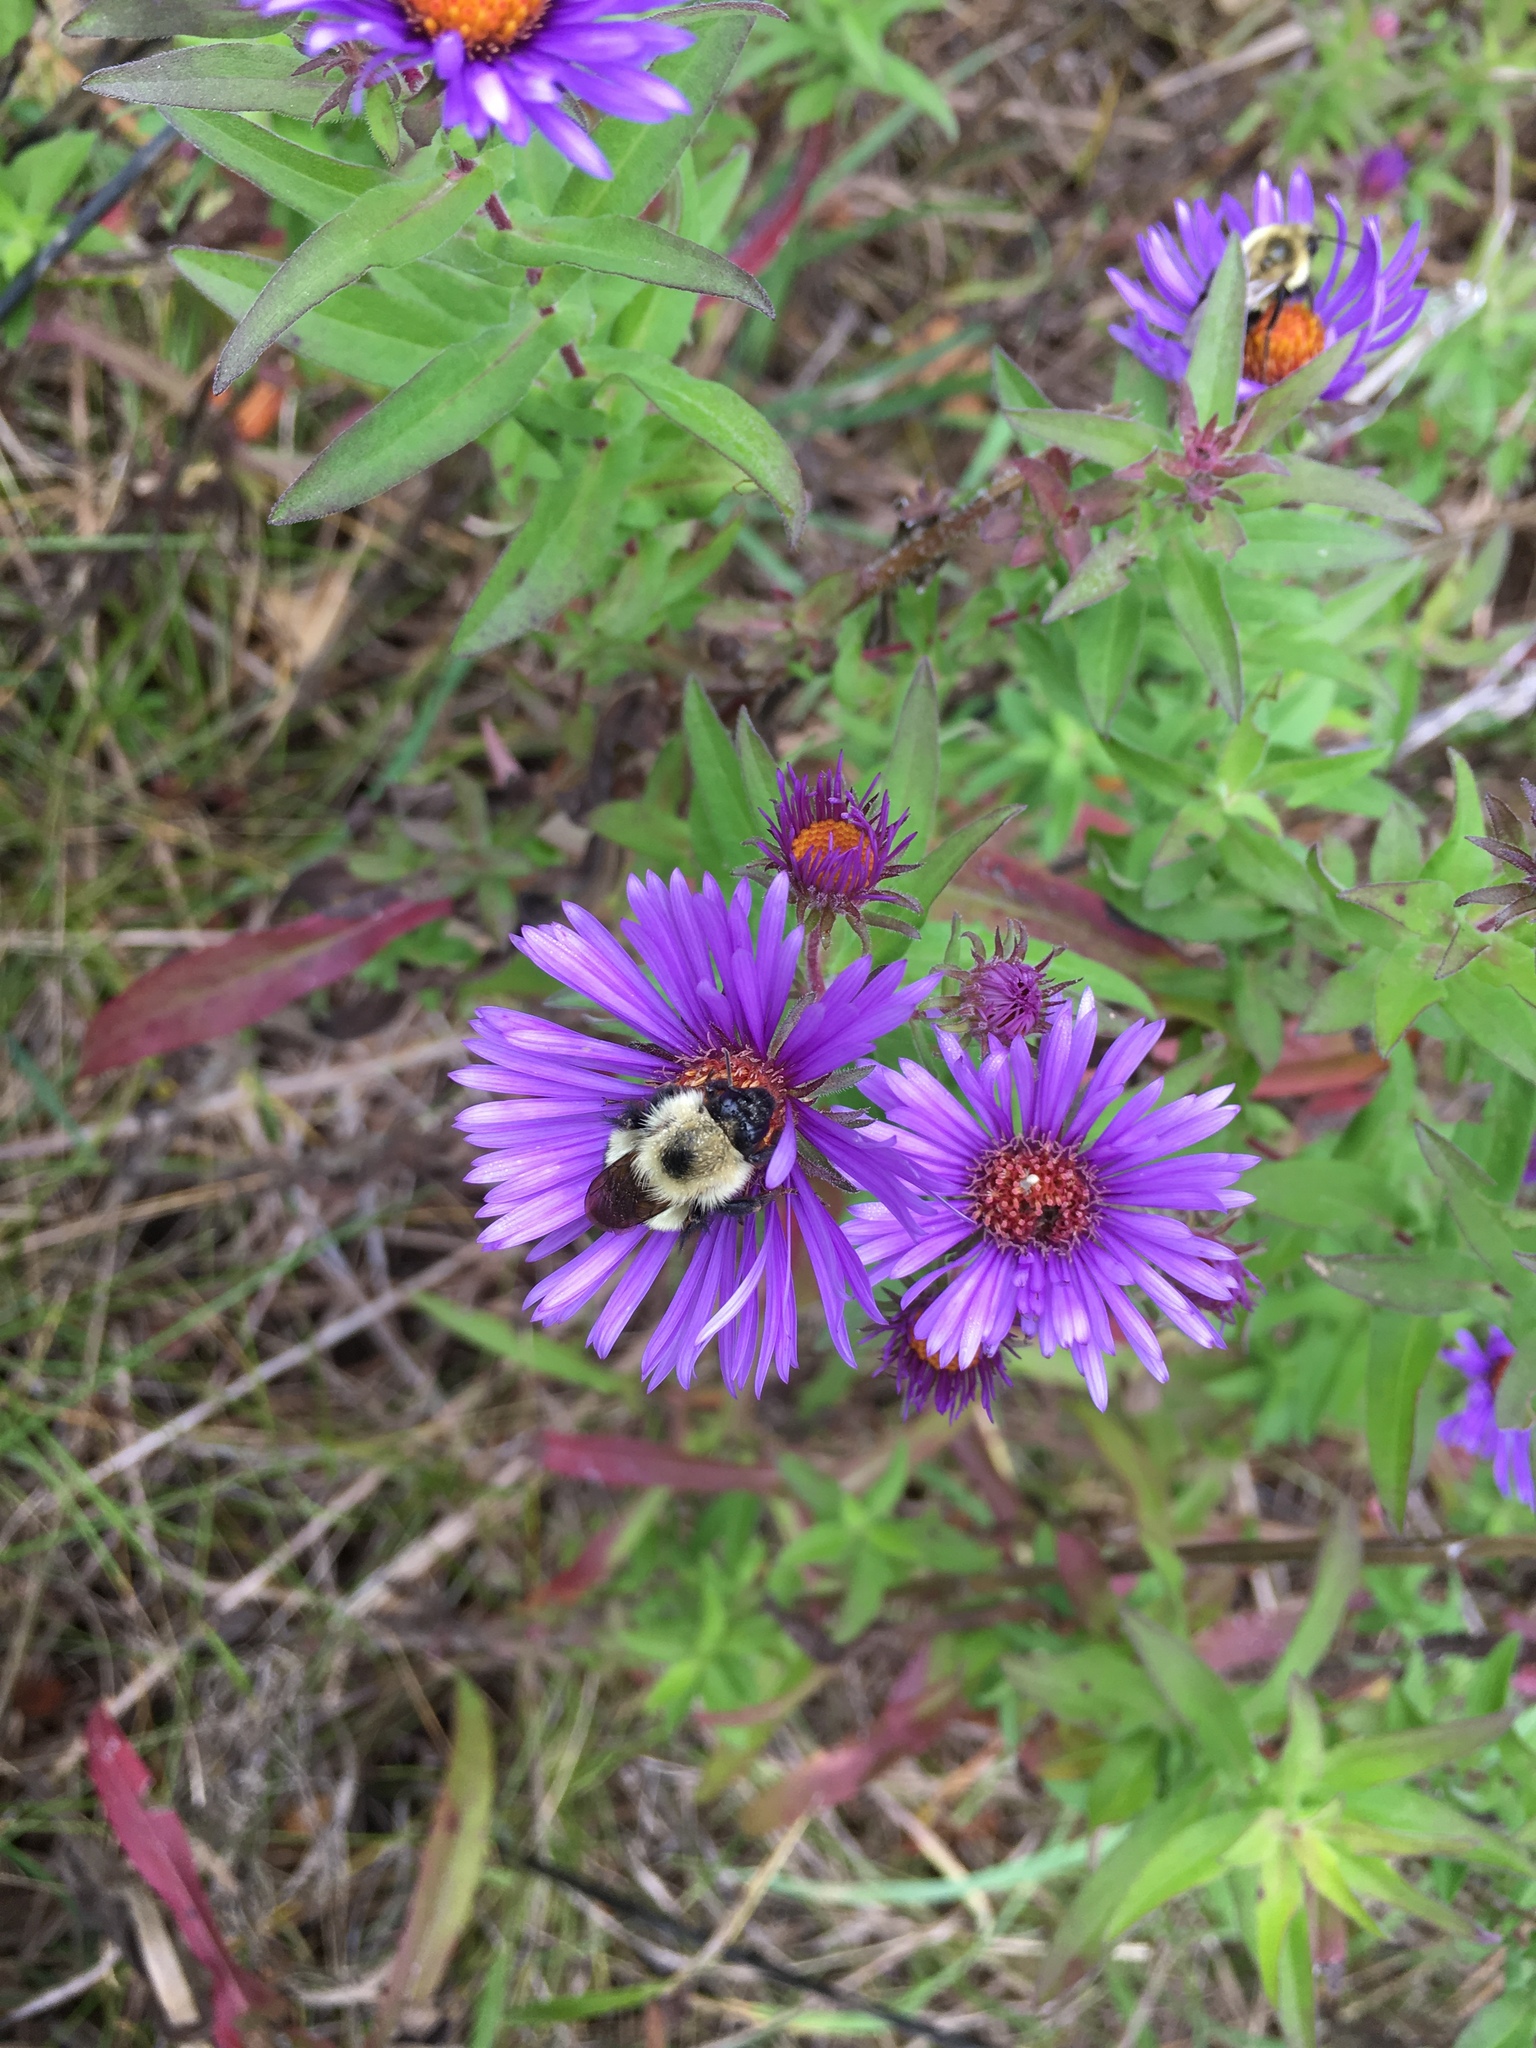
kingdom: Plantae
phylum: Tracheophyta
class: Magnoliopsida
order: Asterales
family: Asteraceae
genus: Symphyotrichum
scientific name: Symphyotrichum novae-angliae
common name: Michaelmas daisy
